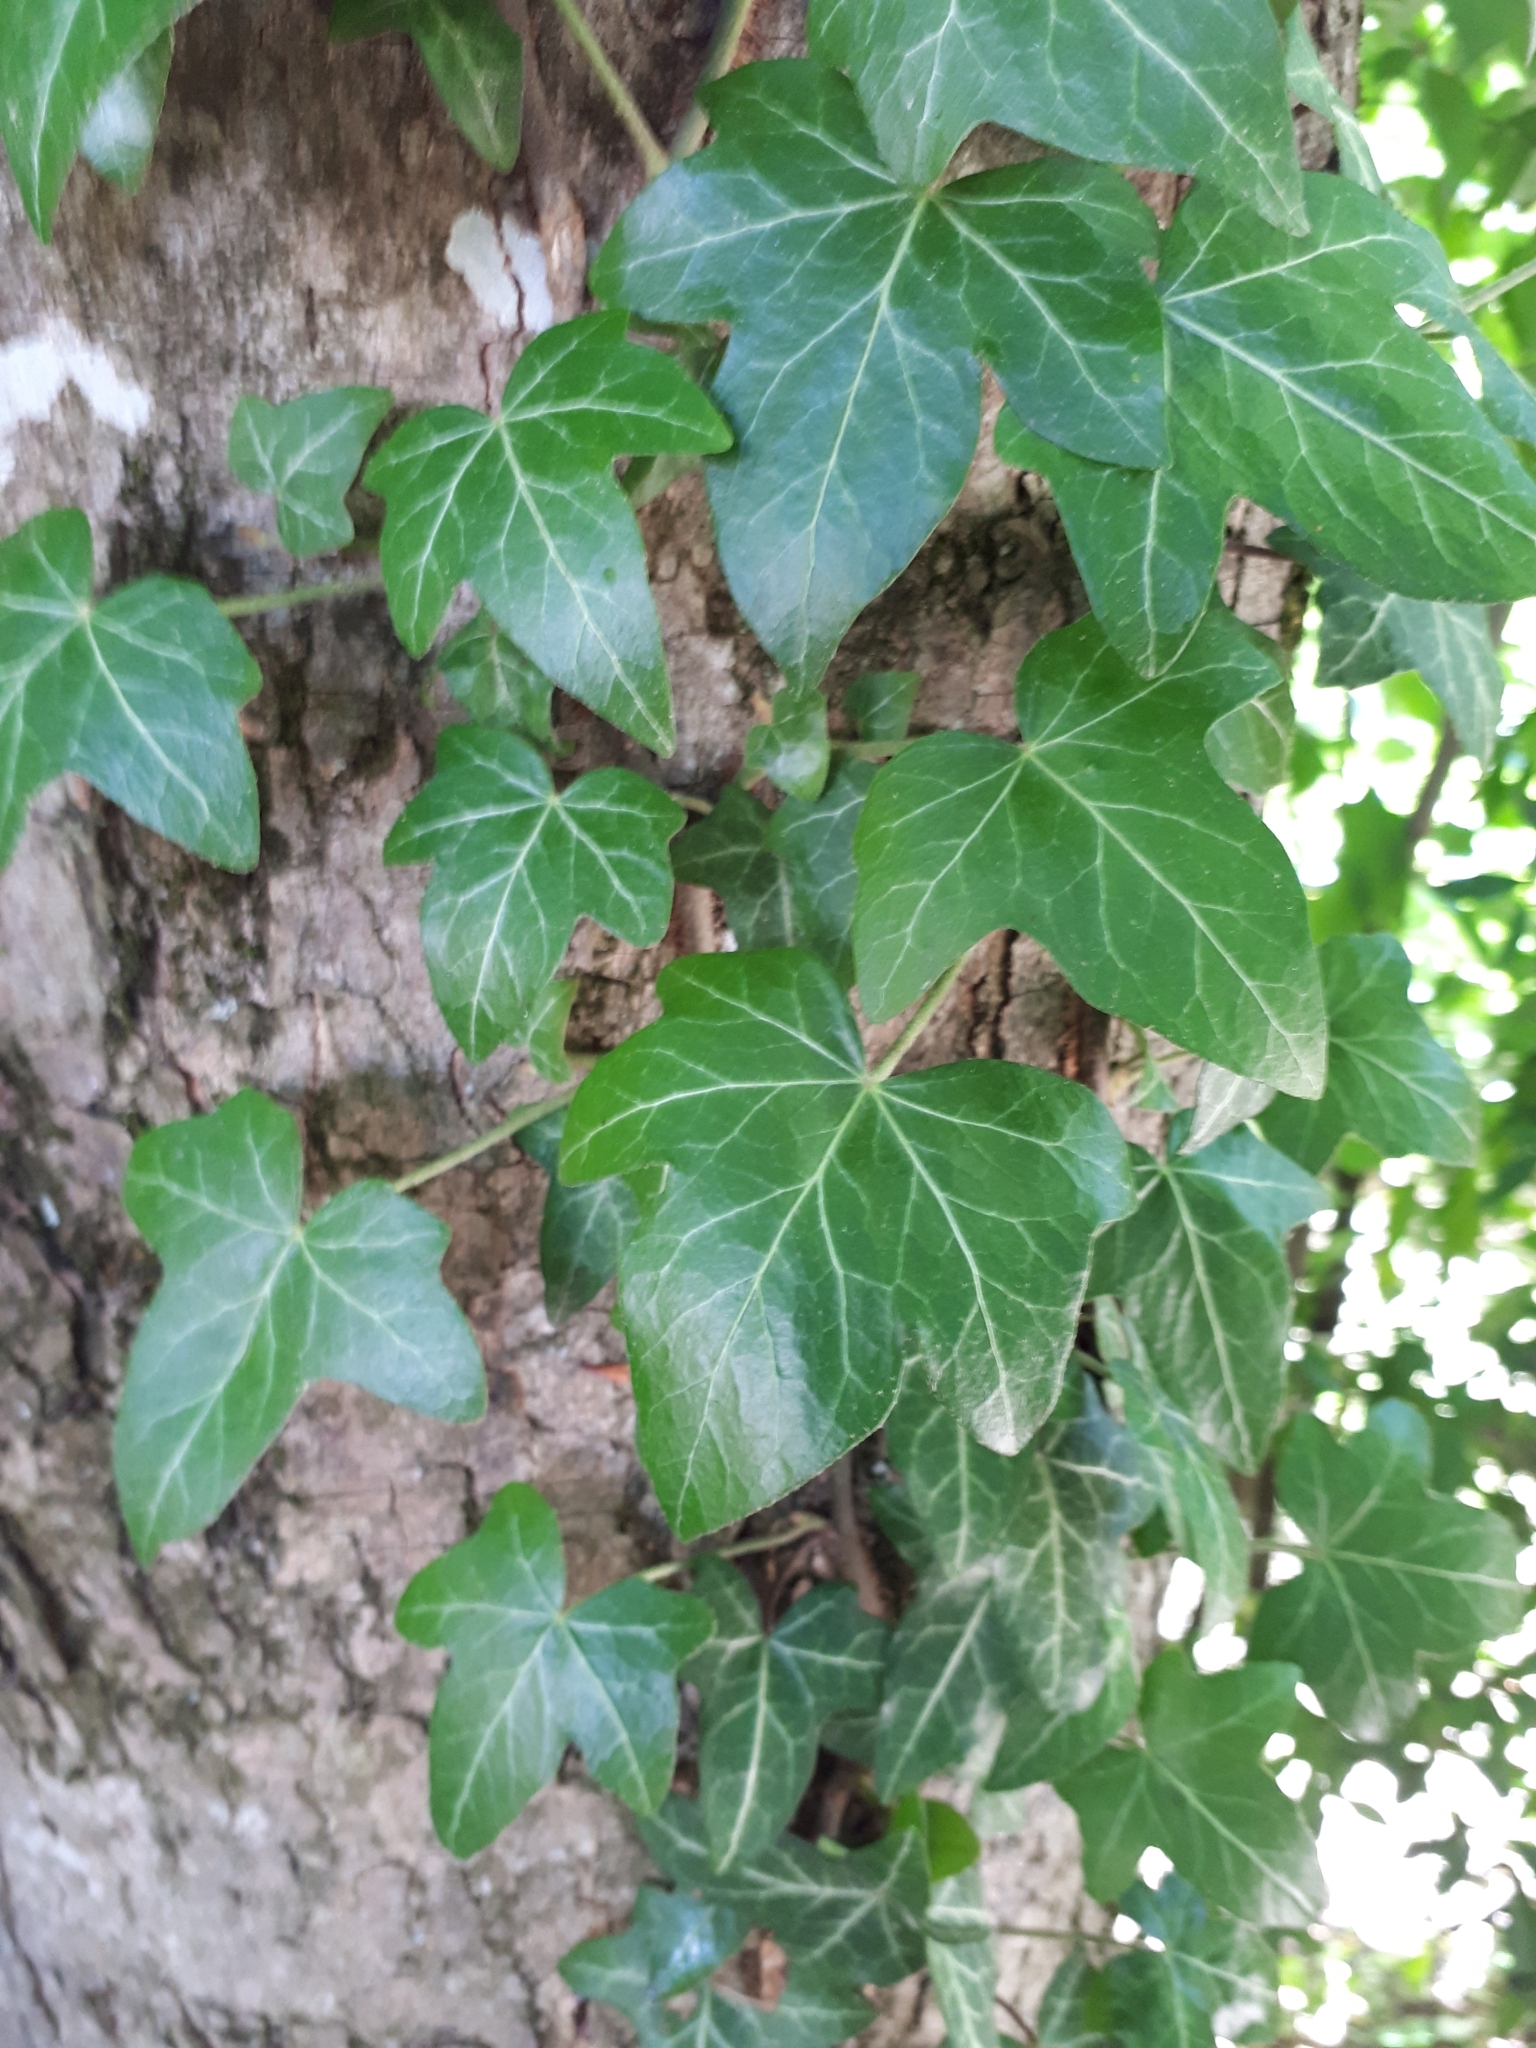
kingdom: Plantae
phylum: Tracheophyta
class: Magnoliopsida
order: Apiales
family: Araliaceae
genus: Hedera
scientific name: Hedera helix
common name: Ivy
